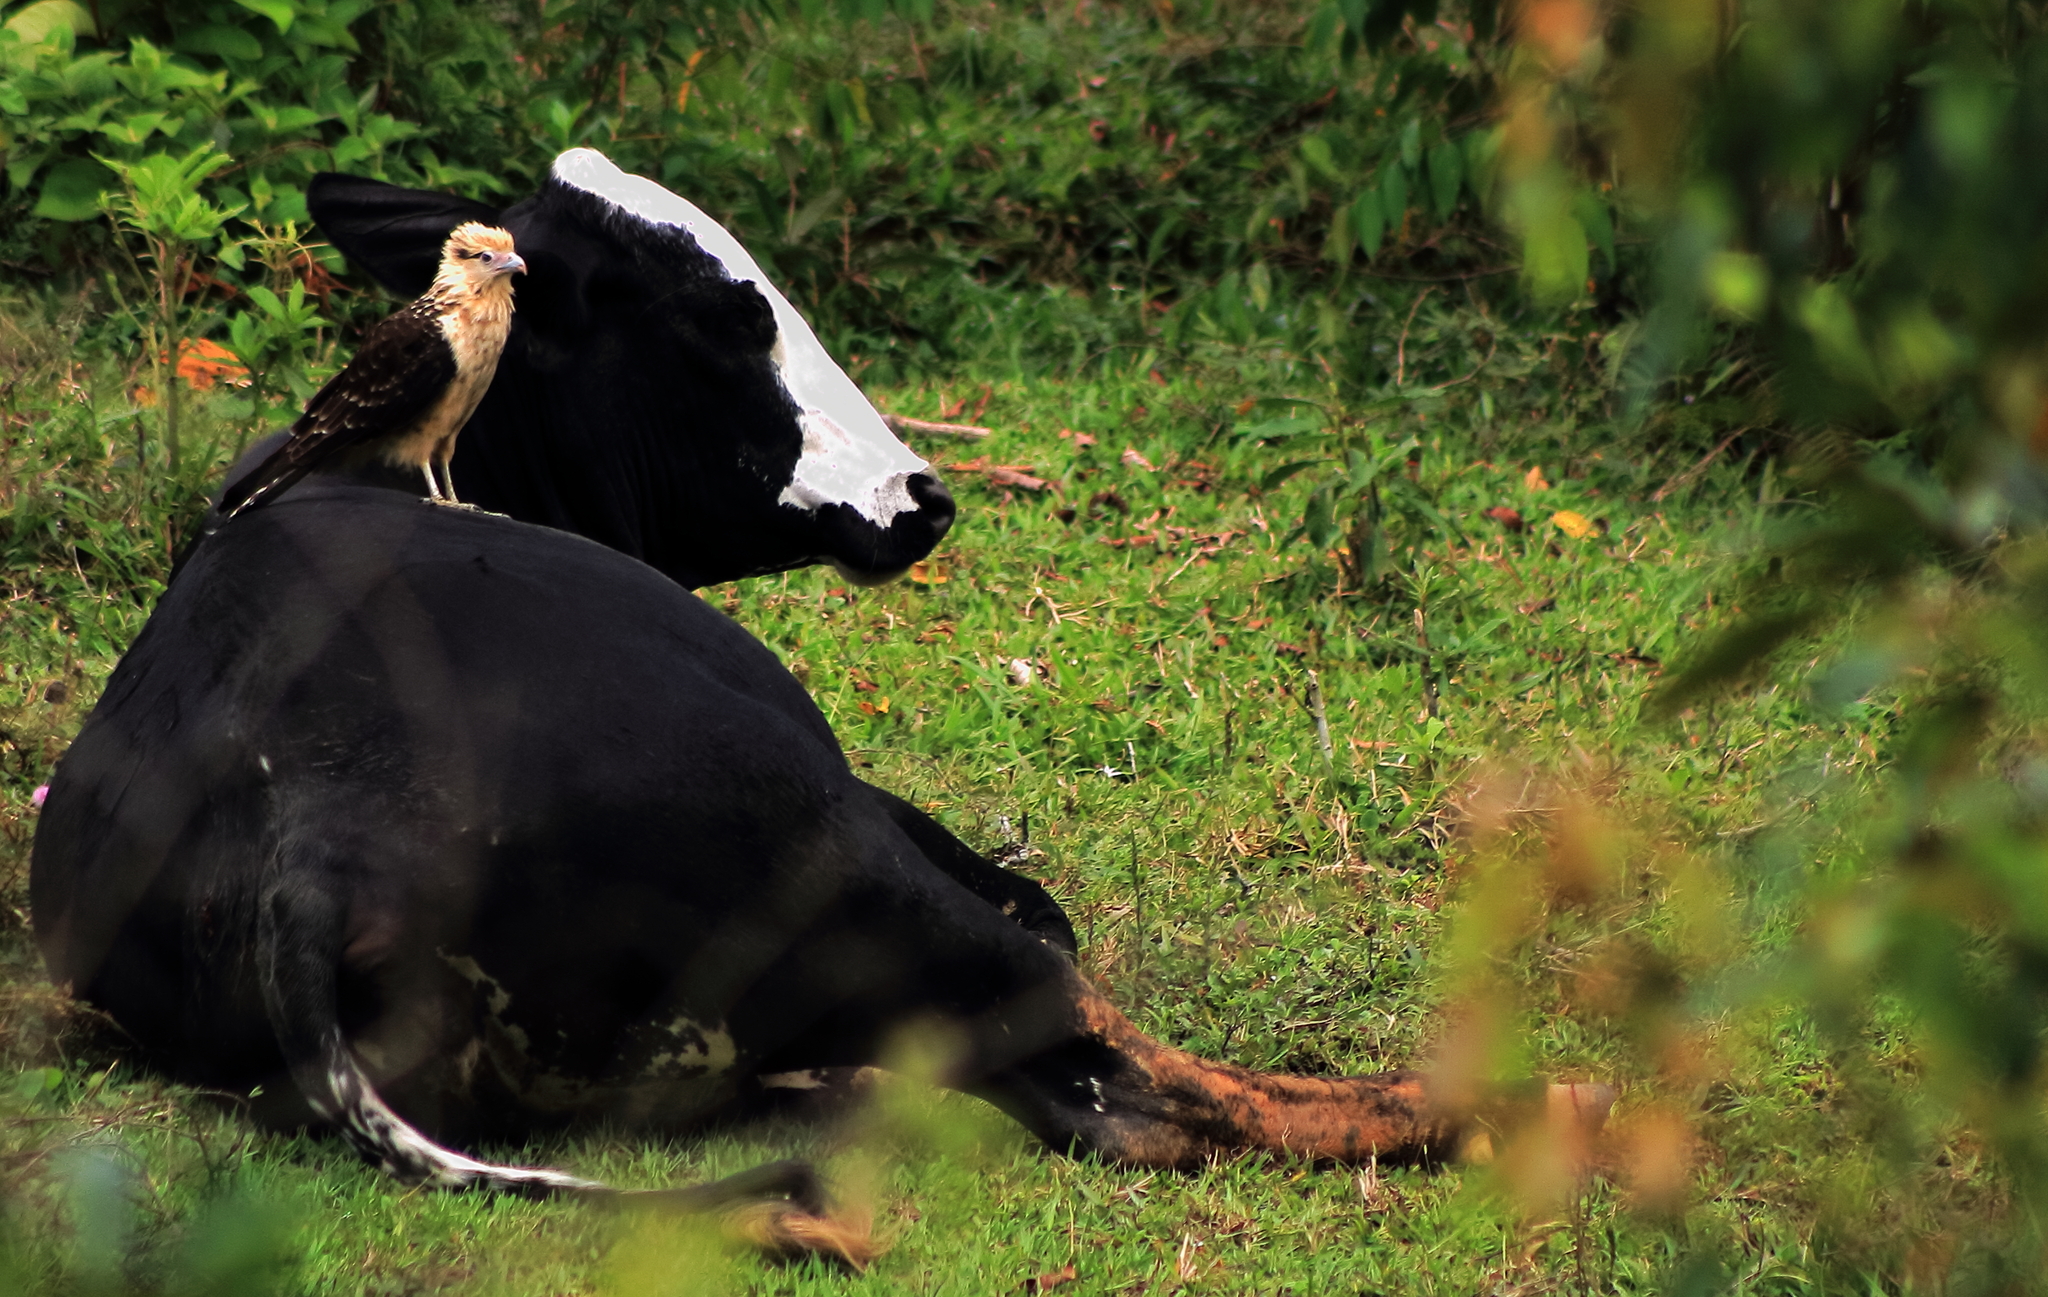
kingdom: Animalia
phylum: Chordata
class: Aves
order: Falconiformes
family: Falconidae
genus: Daptrius
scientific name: Daptrius
